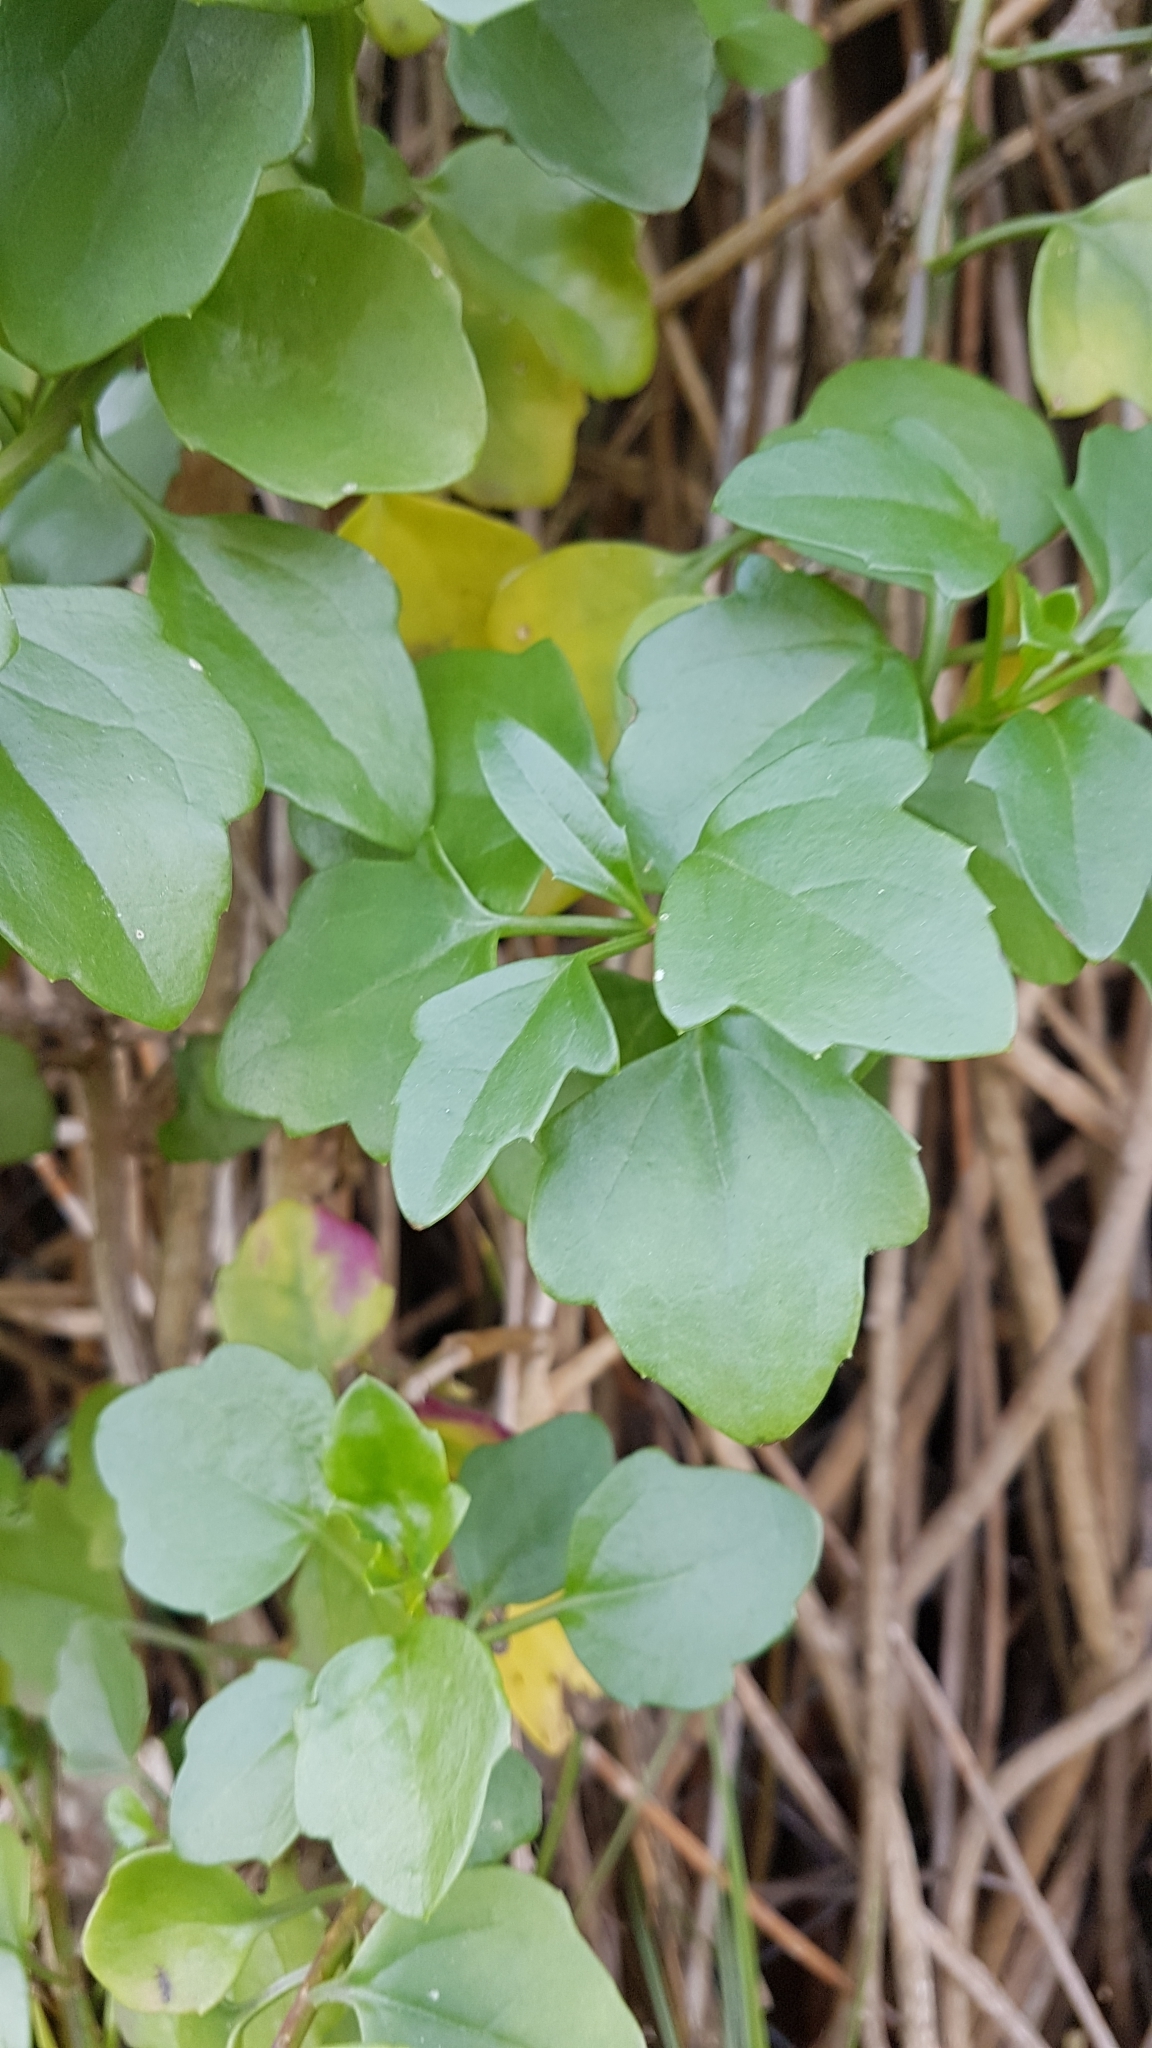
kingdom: Plantae
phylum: Tracheophyta
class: Magnoliopsida
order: Asterales
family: Asteraceae
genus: Senecio
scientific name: Senecio angulatus
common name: Climbing groundsel
